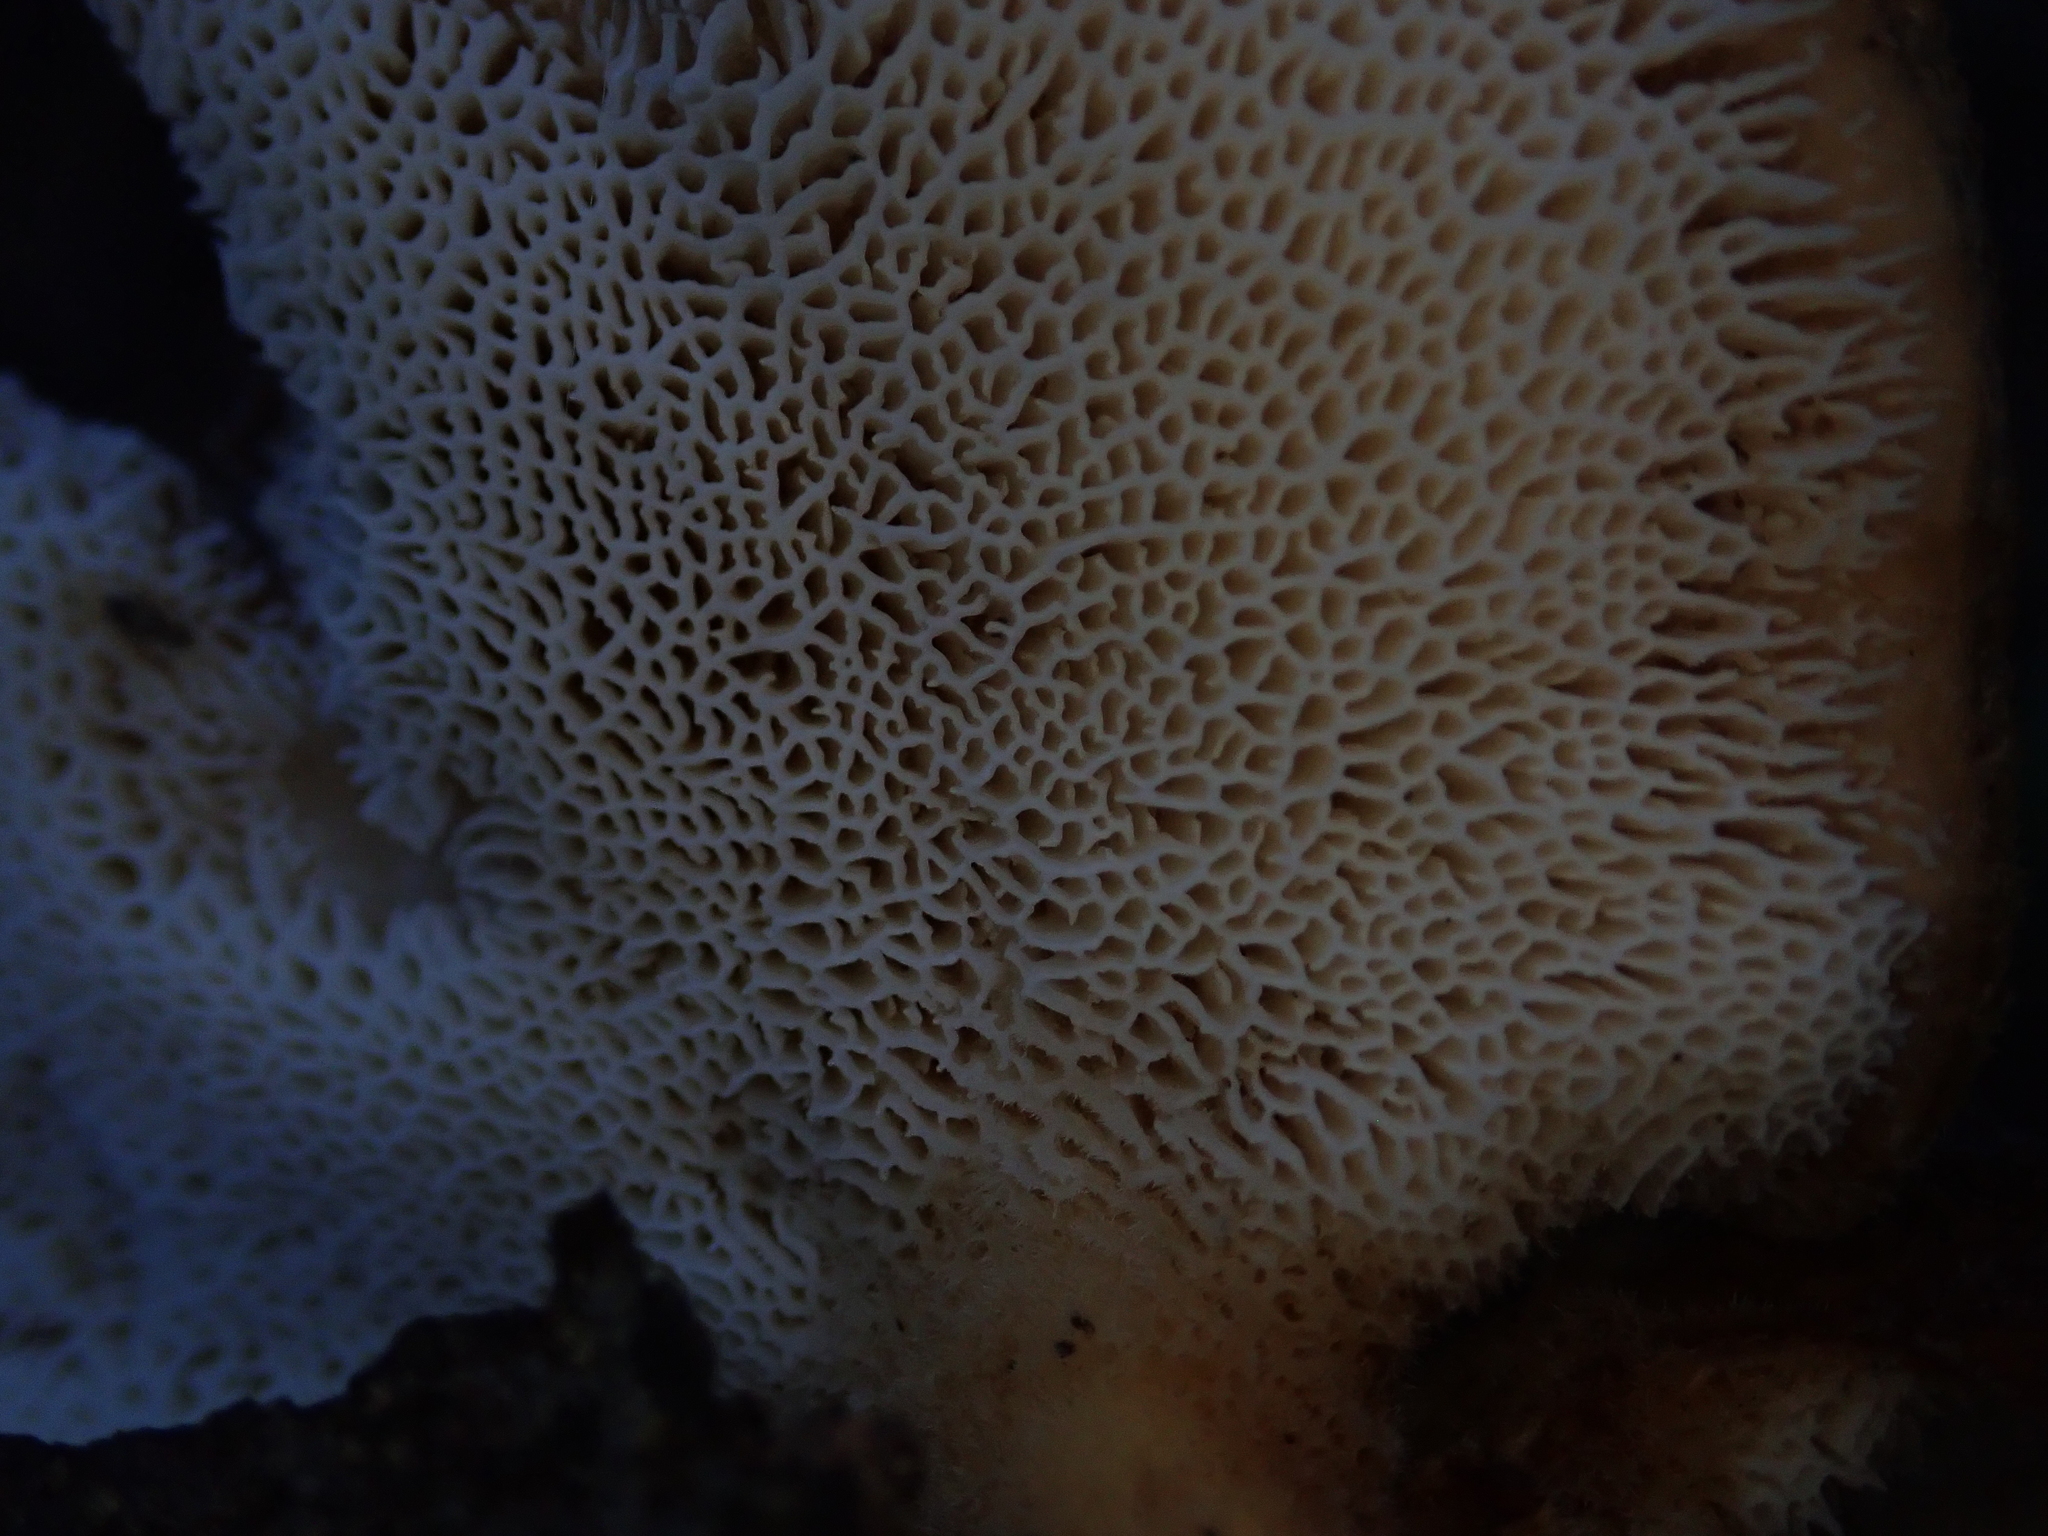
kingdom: Fungi
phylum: Basidiomycota
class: Agaricomycetes
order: Polyporales
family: Polyporaceae
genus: Polyporus
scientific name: Polyporus mcmurphyi
